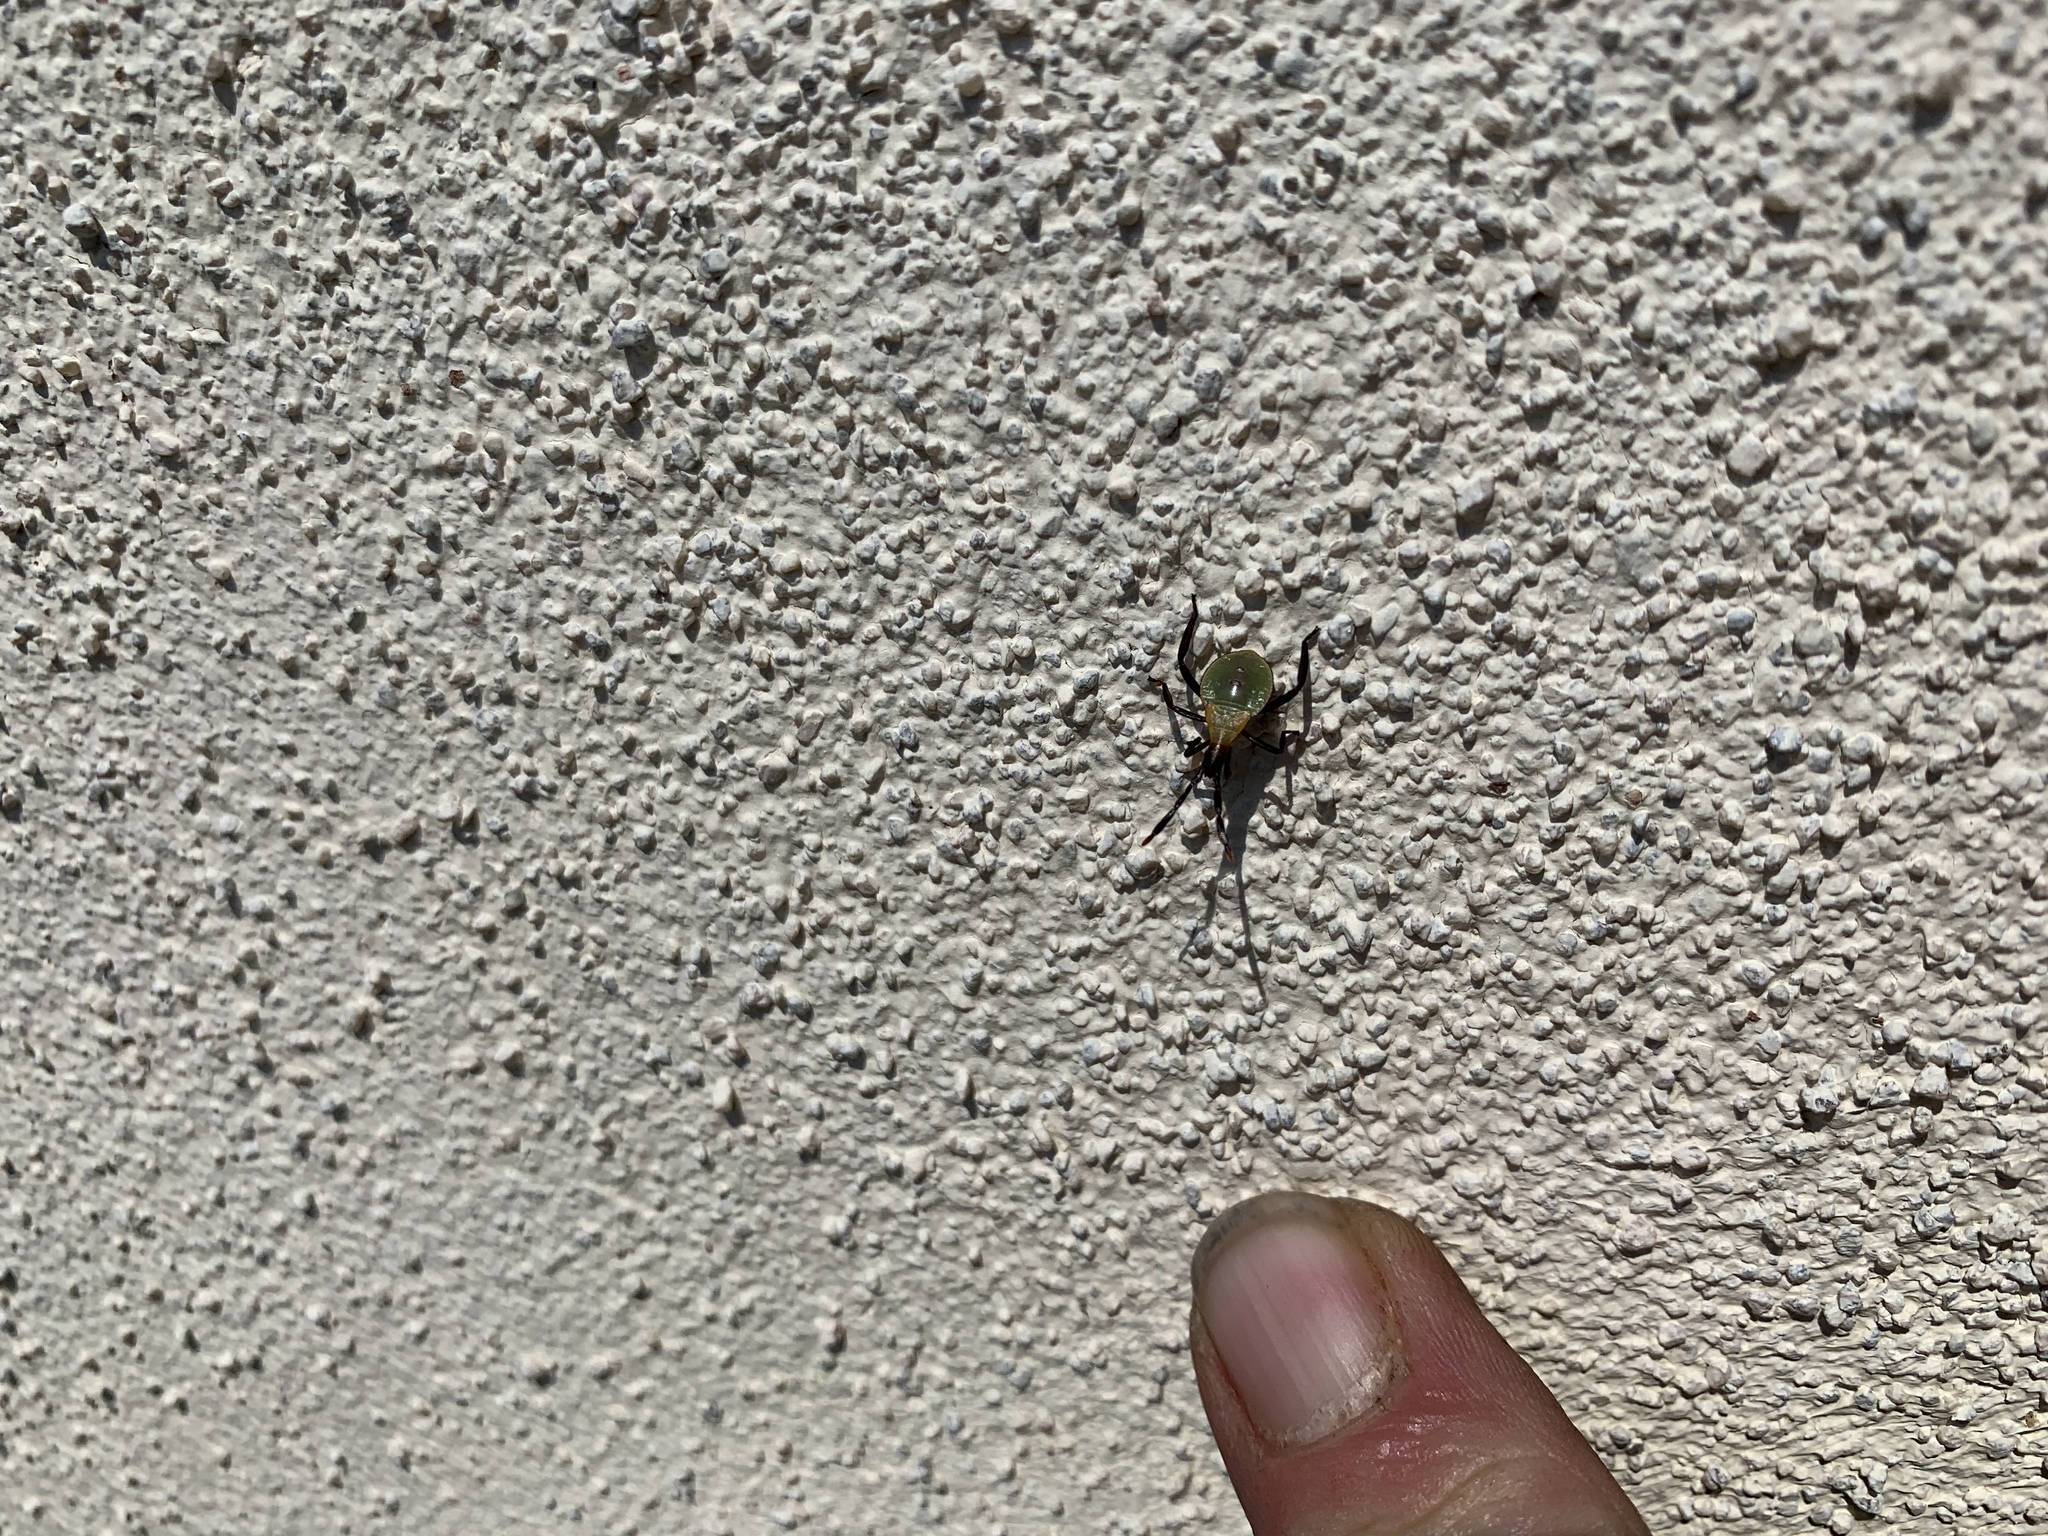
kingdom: Animalia
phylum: Arthropoda
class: Insecta
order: Hemiptera
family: Coreidae
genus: Chelinidea
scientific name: Chelinidea vittiger
